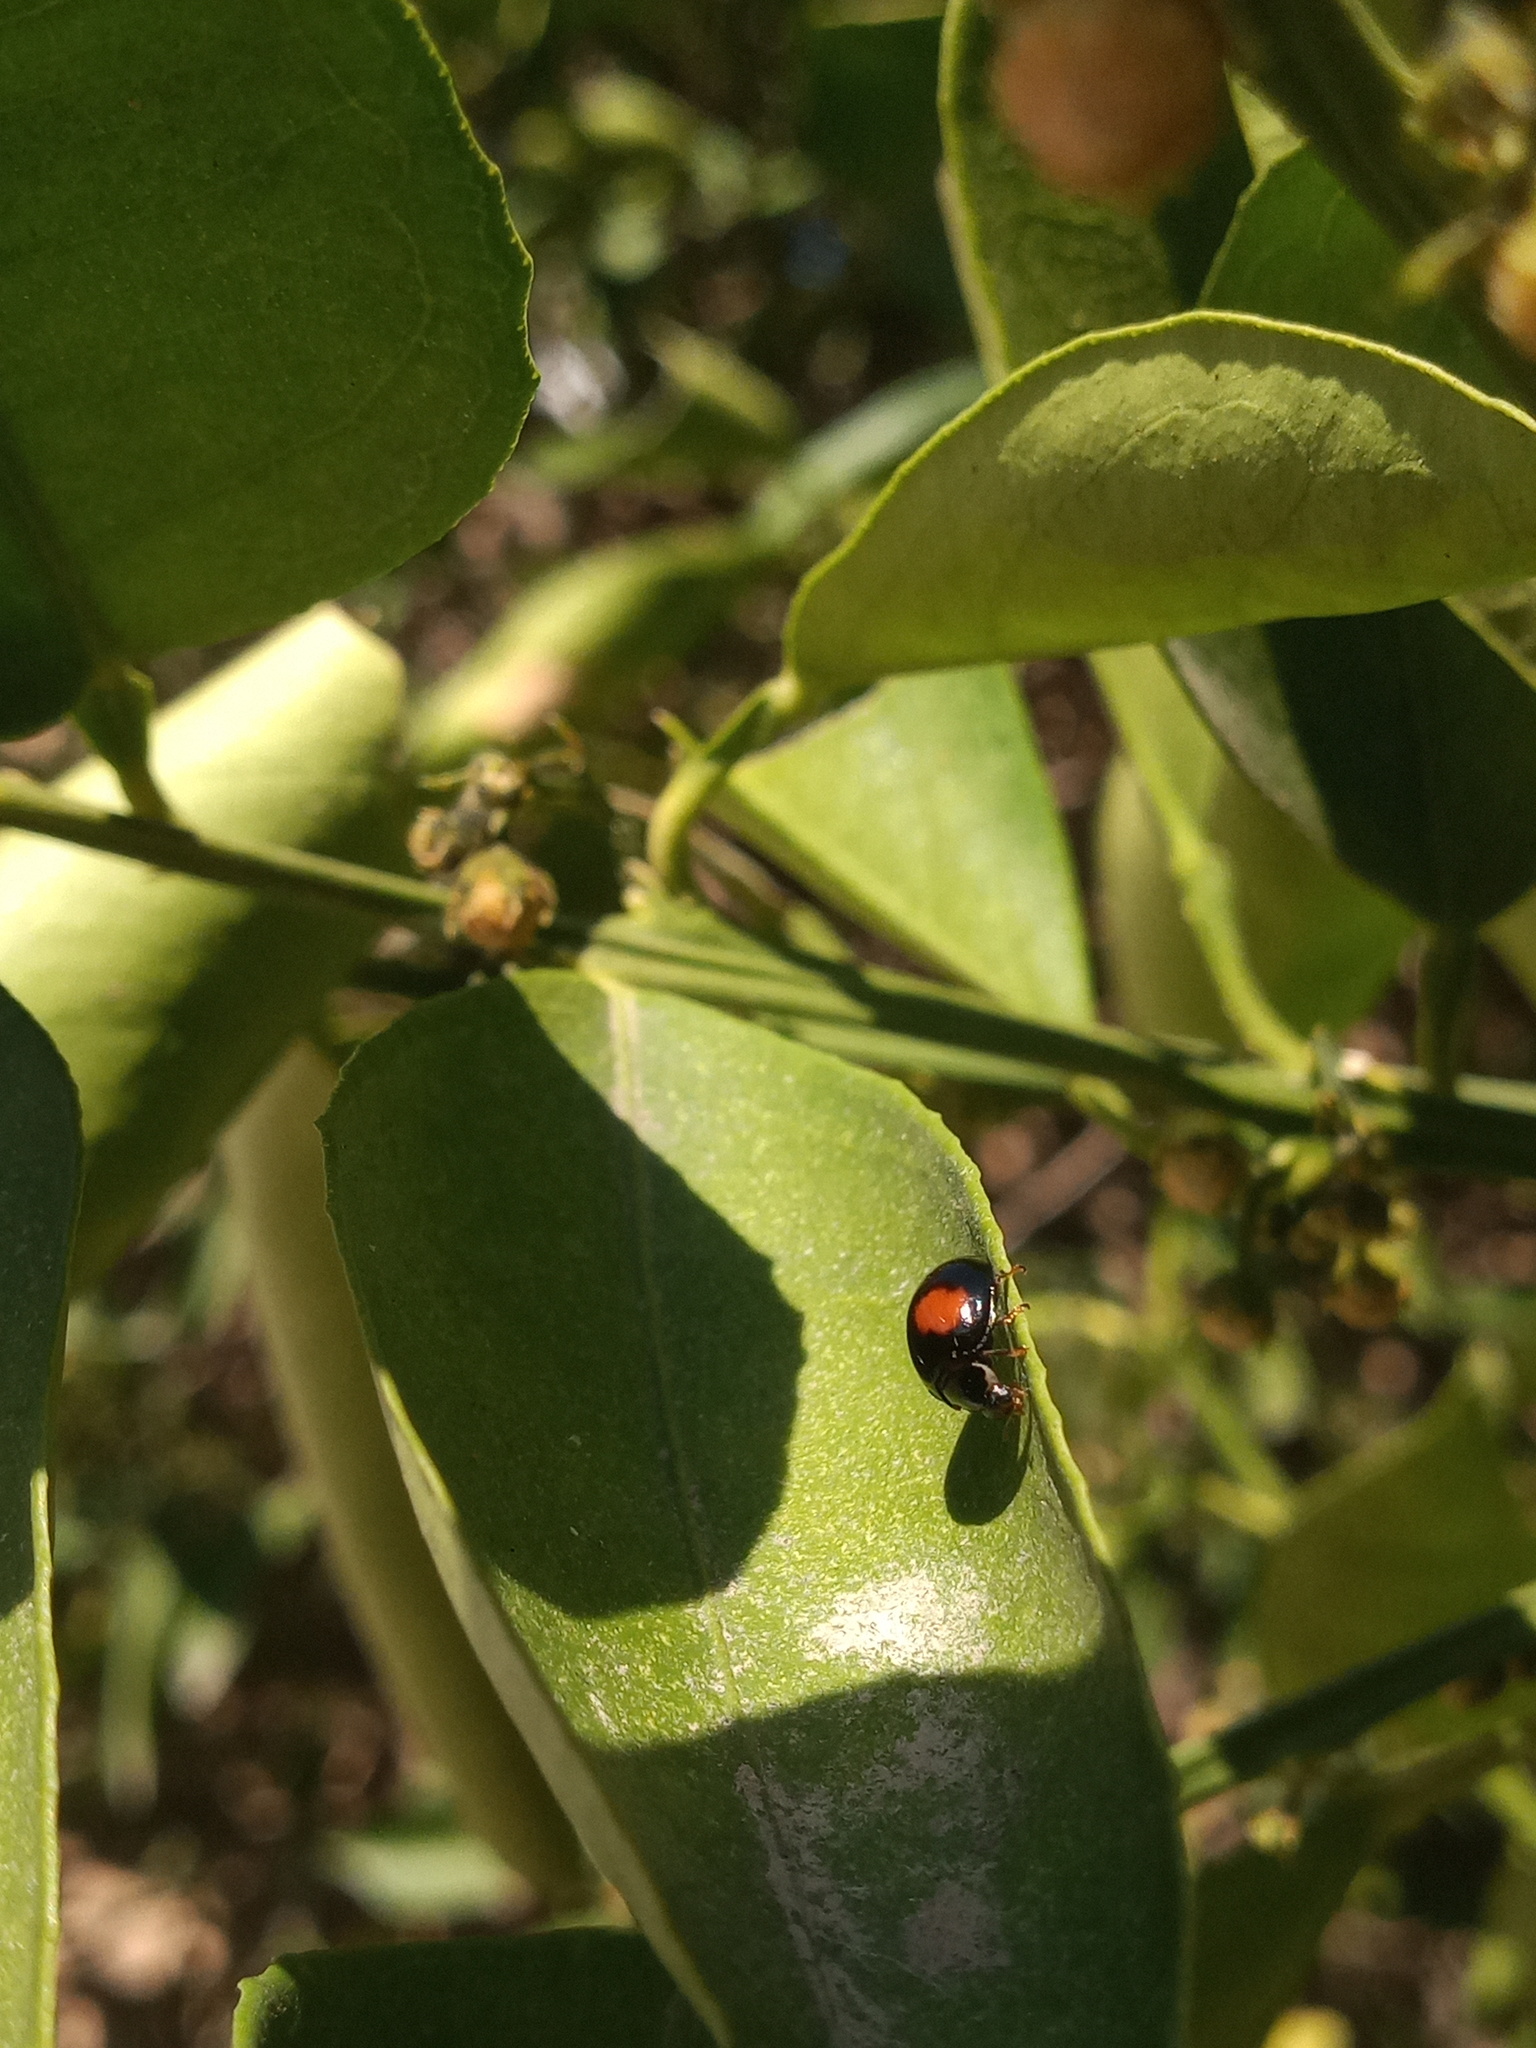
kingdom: Animalia
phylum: Arthropoda
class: Insecta
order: Coleoptera
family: Coccinellidae
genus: Olla
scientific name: Olla v-nigrum
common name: Ashy gray lady beetle
